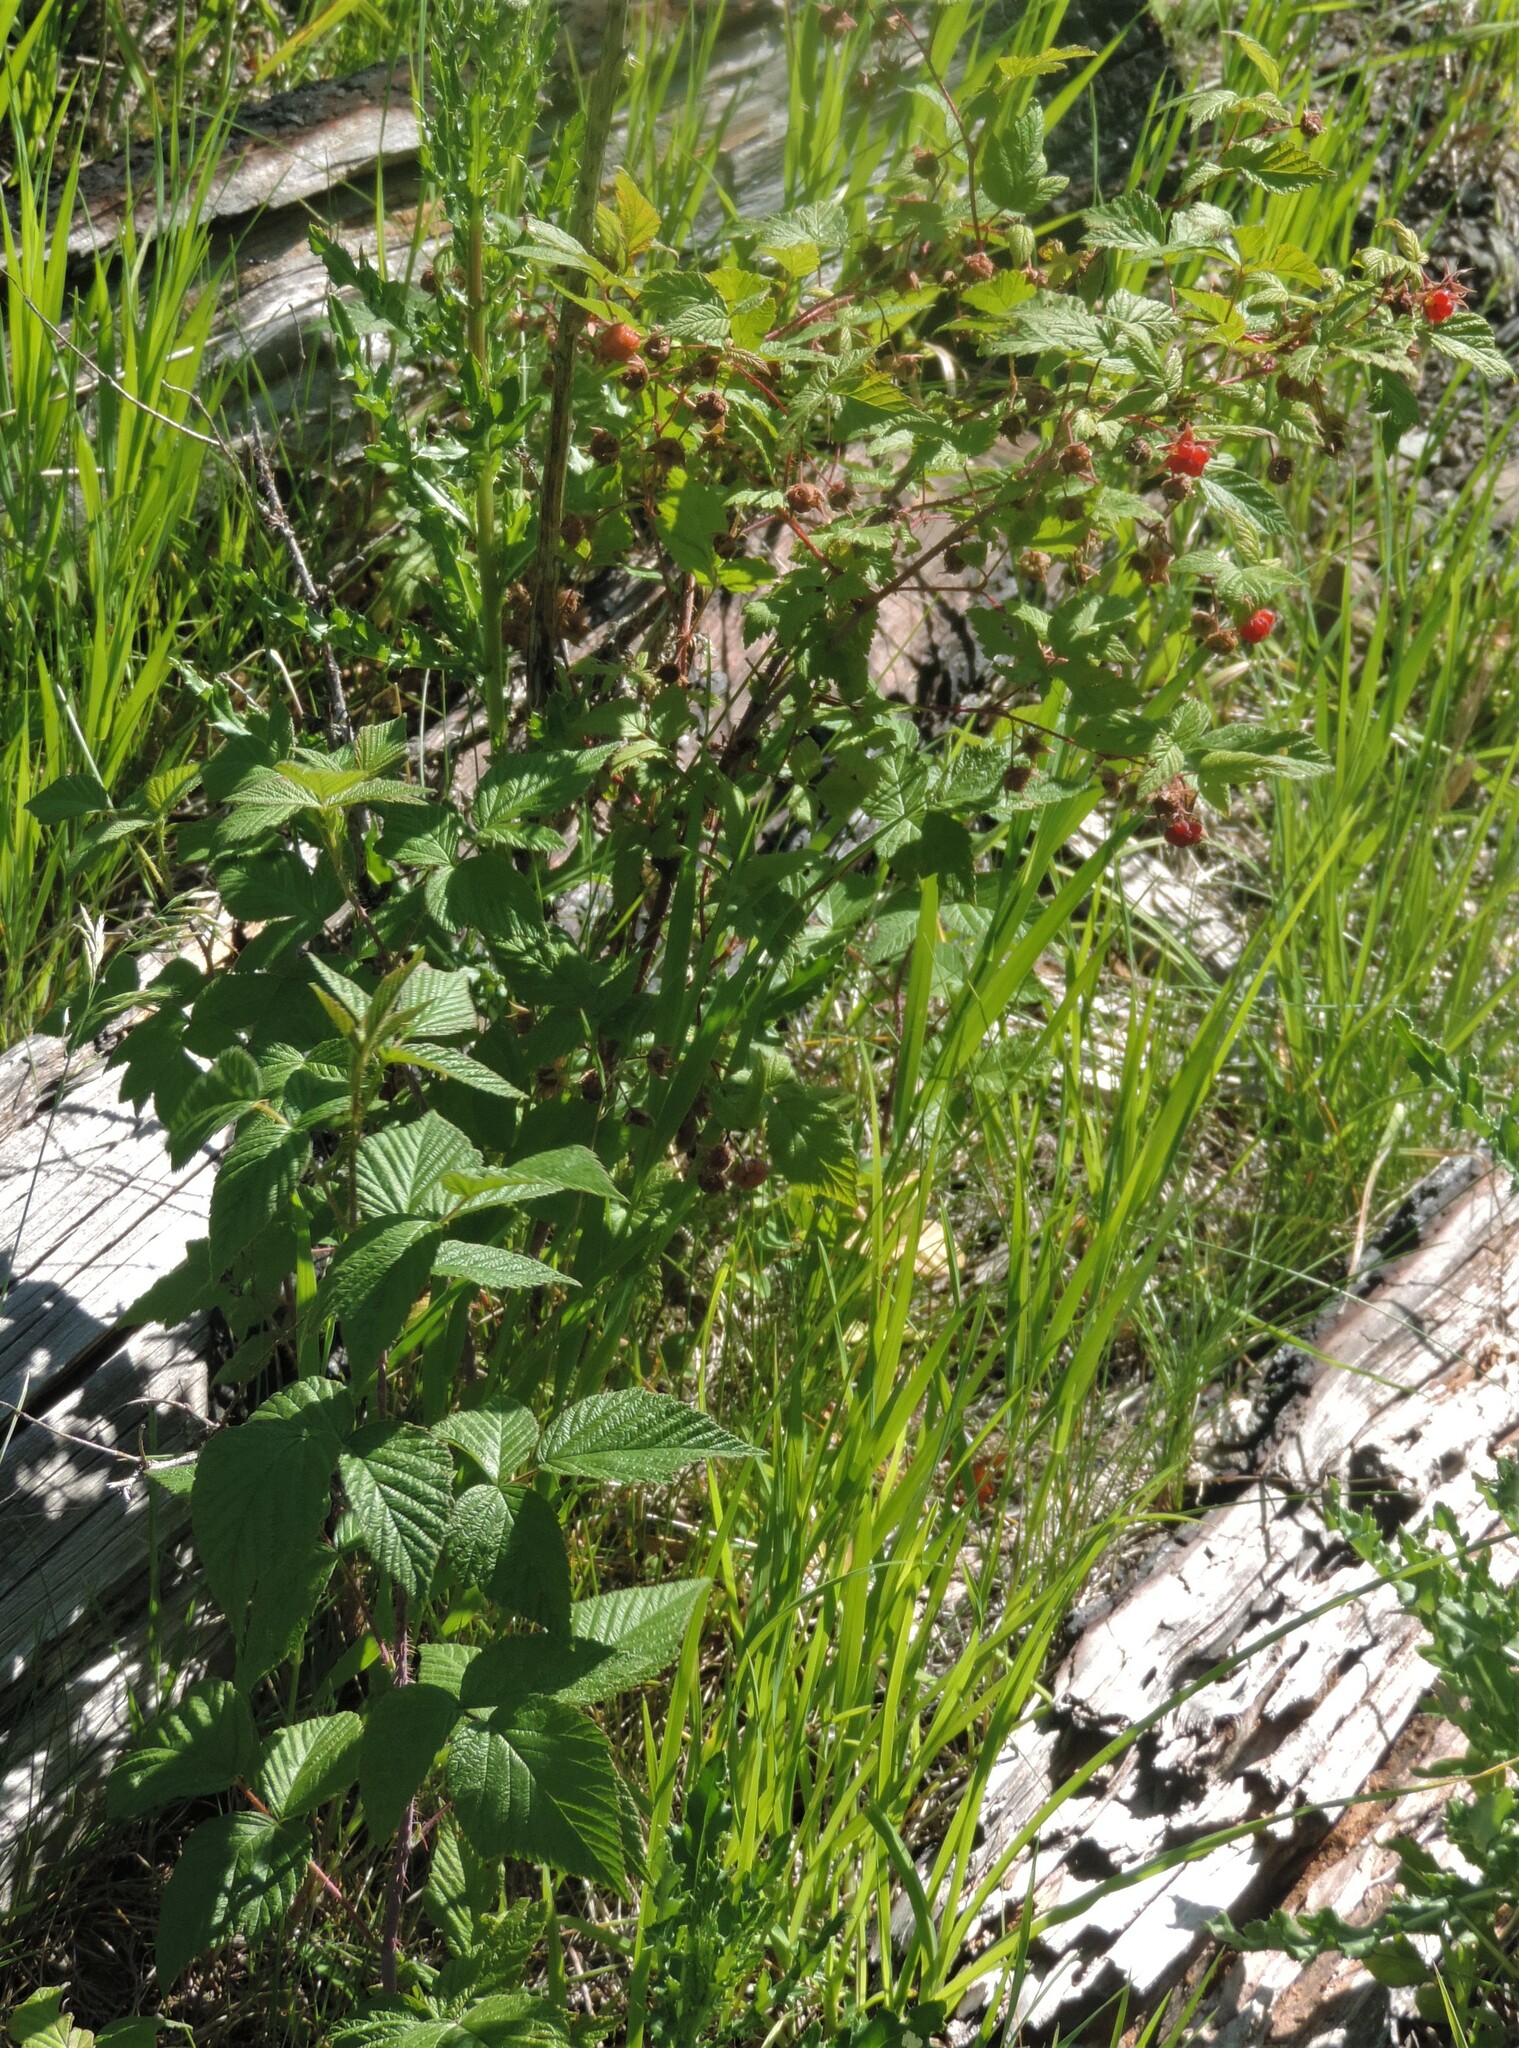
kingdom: Plantae
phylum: Tracheophyta
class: Magnoliopsida
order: Rosales
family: Rosaceae
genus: Rubus
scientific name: Rubus idaeus
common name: Raspberry
